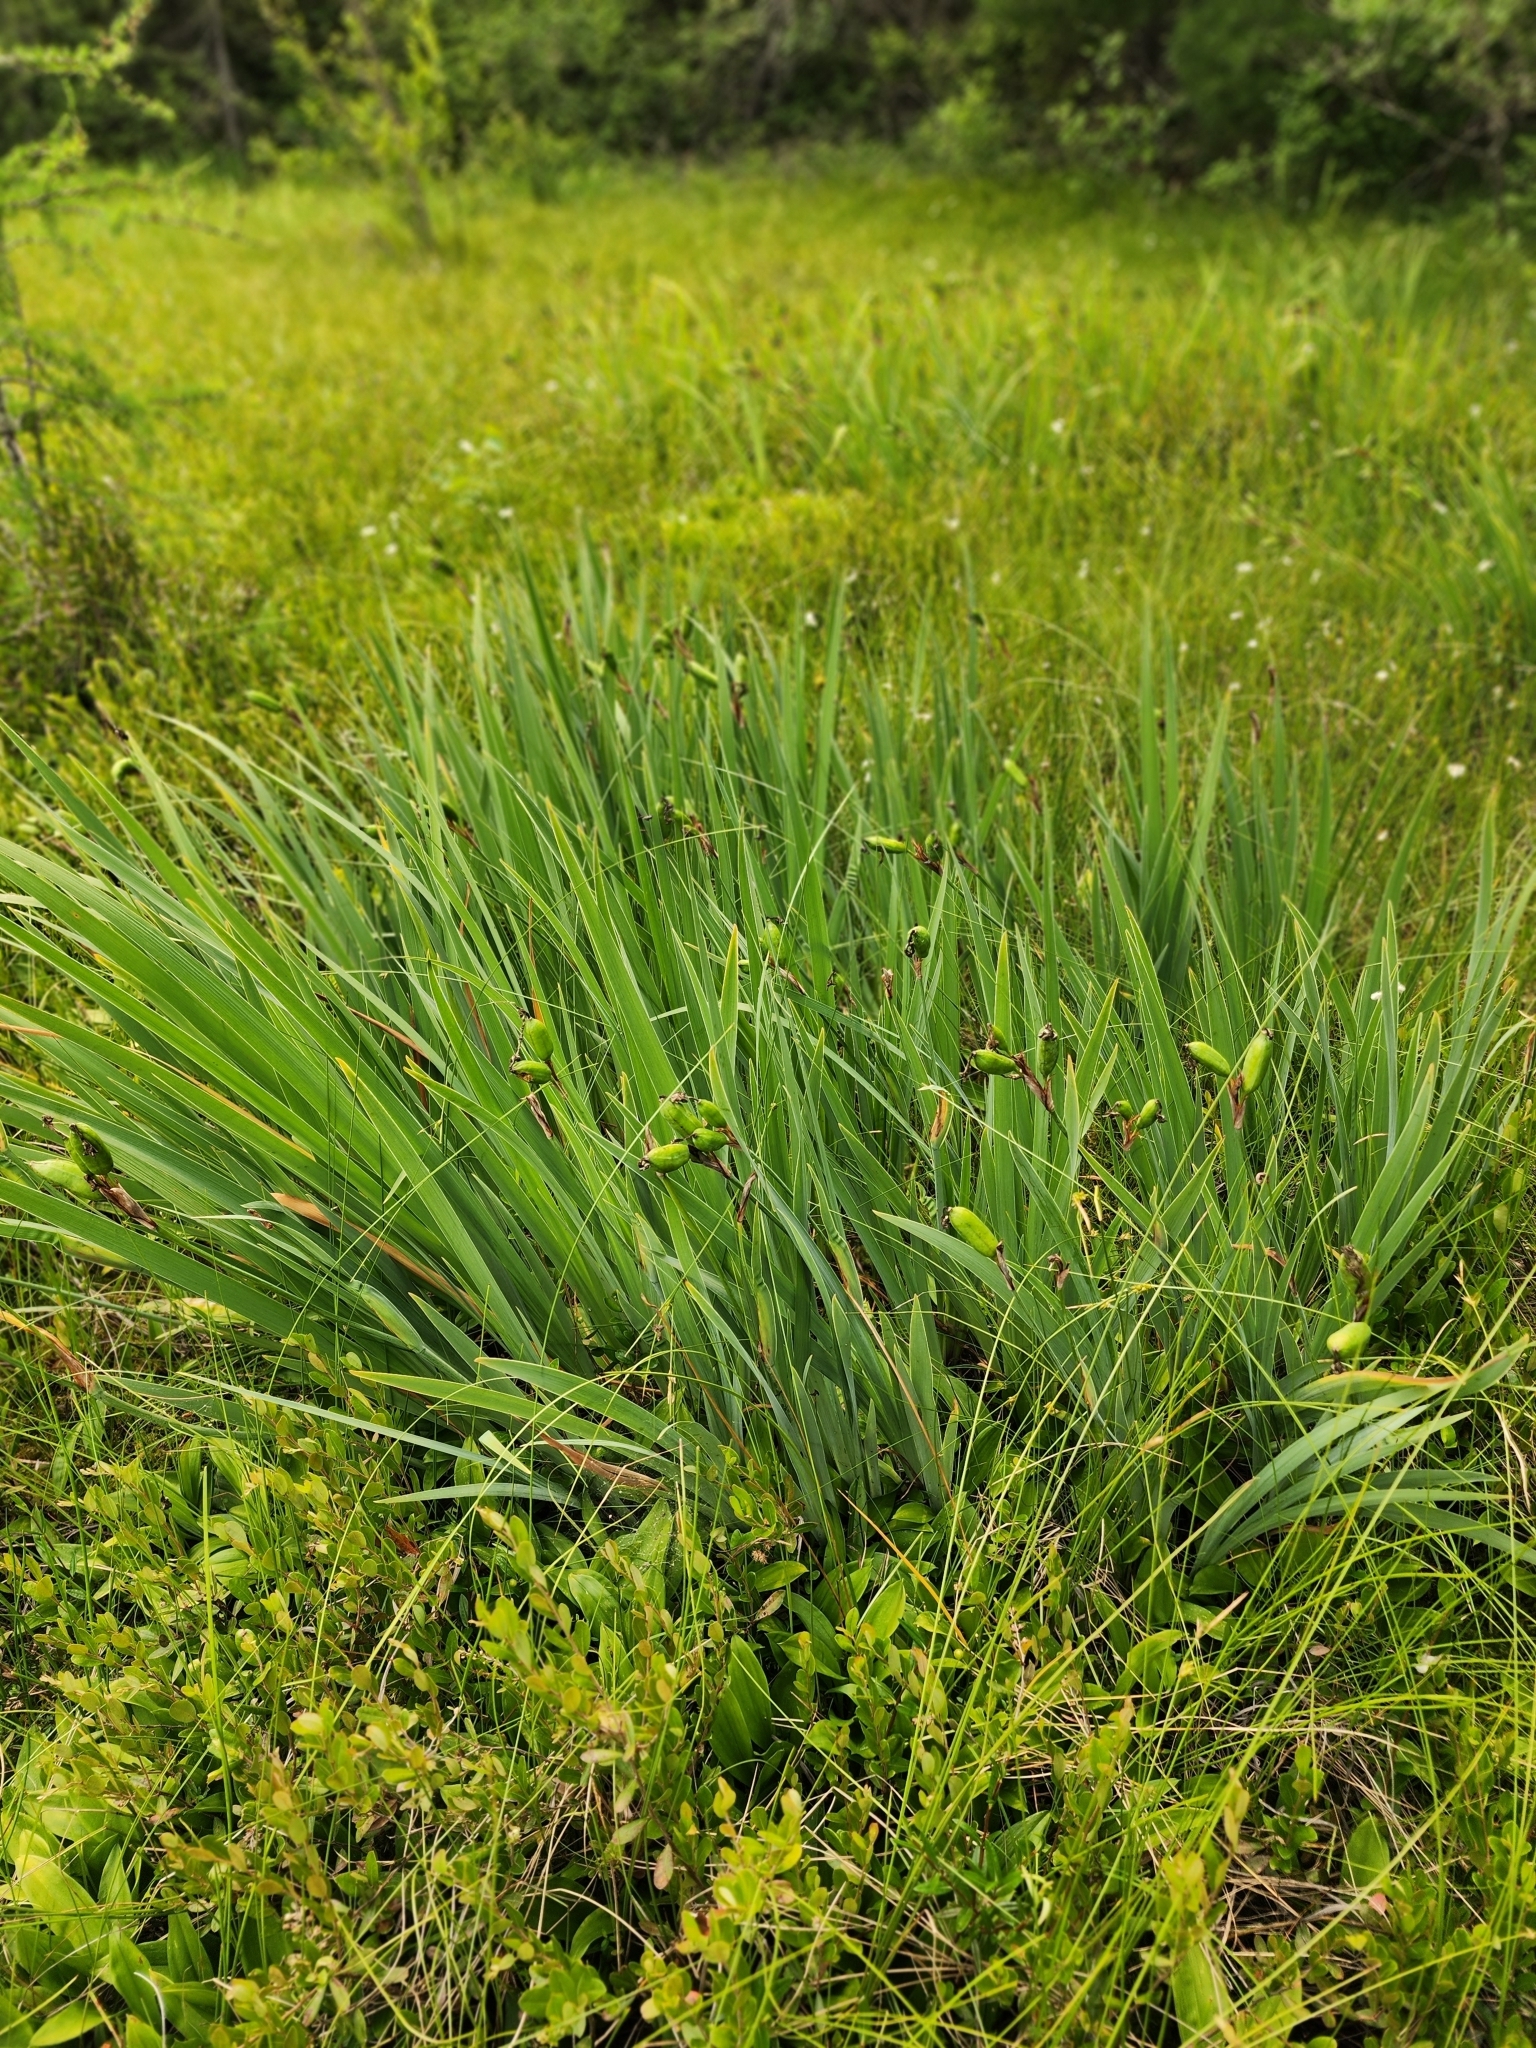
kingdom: Plantae
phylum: Tracheophyta
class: Liliopsida
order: Asparagales
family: Iridaceae
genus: Iris
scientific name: Iris versicolor
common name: Purple iris
